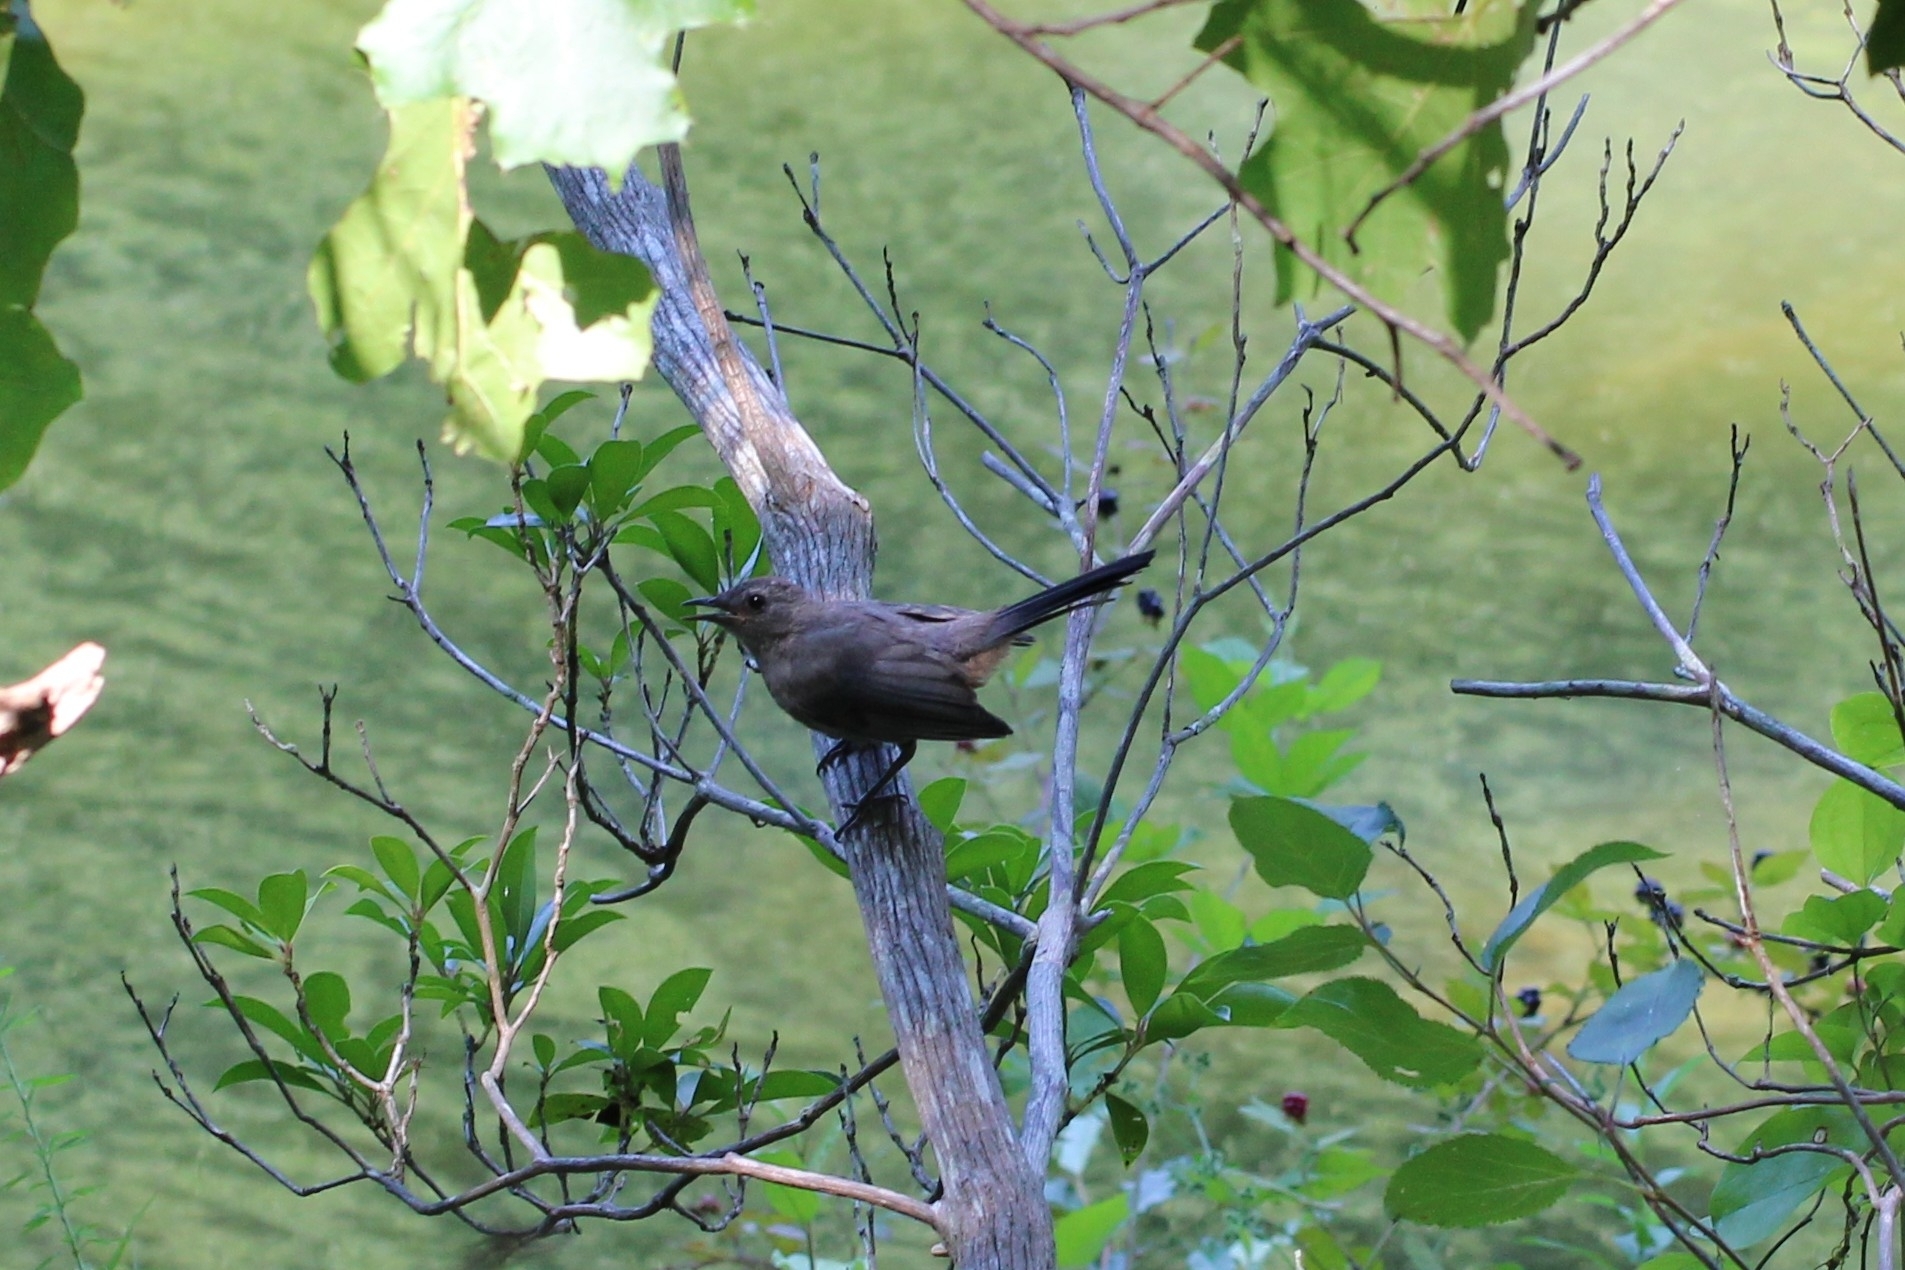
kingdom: Animalia
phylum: Chordata
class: Aves
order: Passeriformes
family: Mimidae
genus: Dumetella
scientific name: Dumetella carolinensis
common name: Gray catbird
